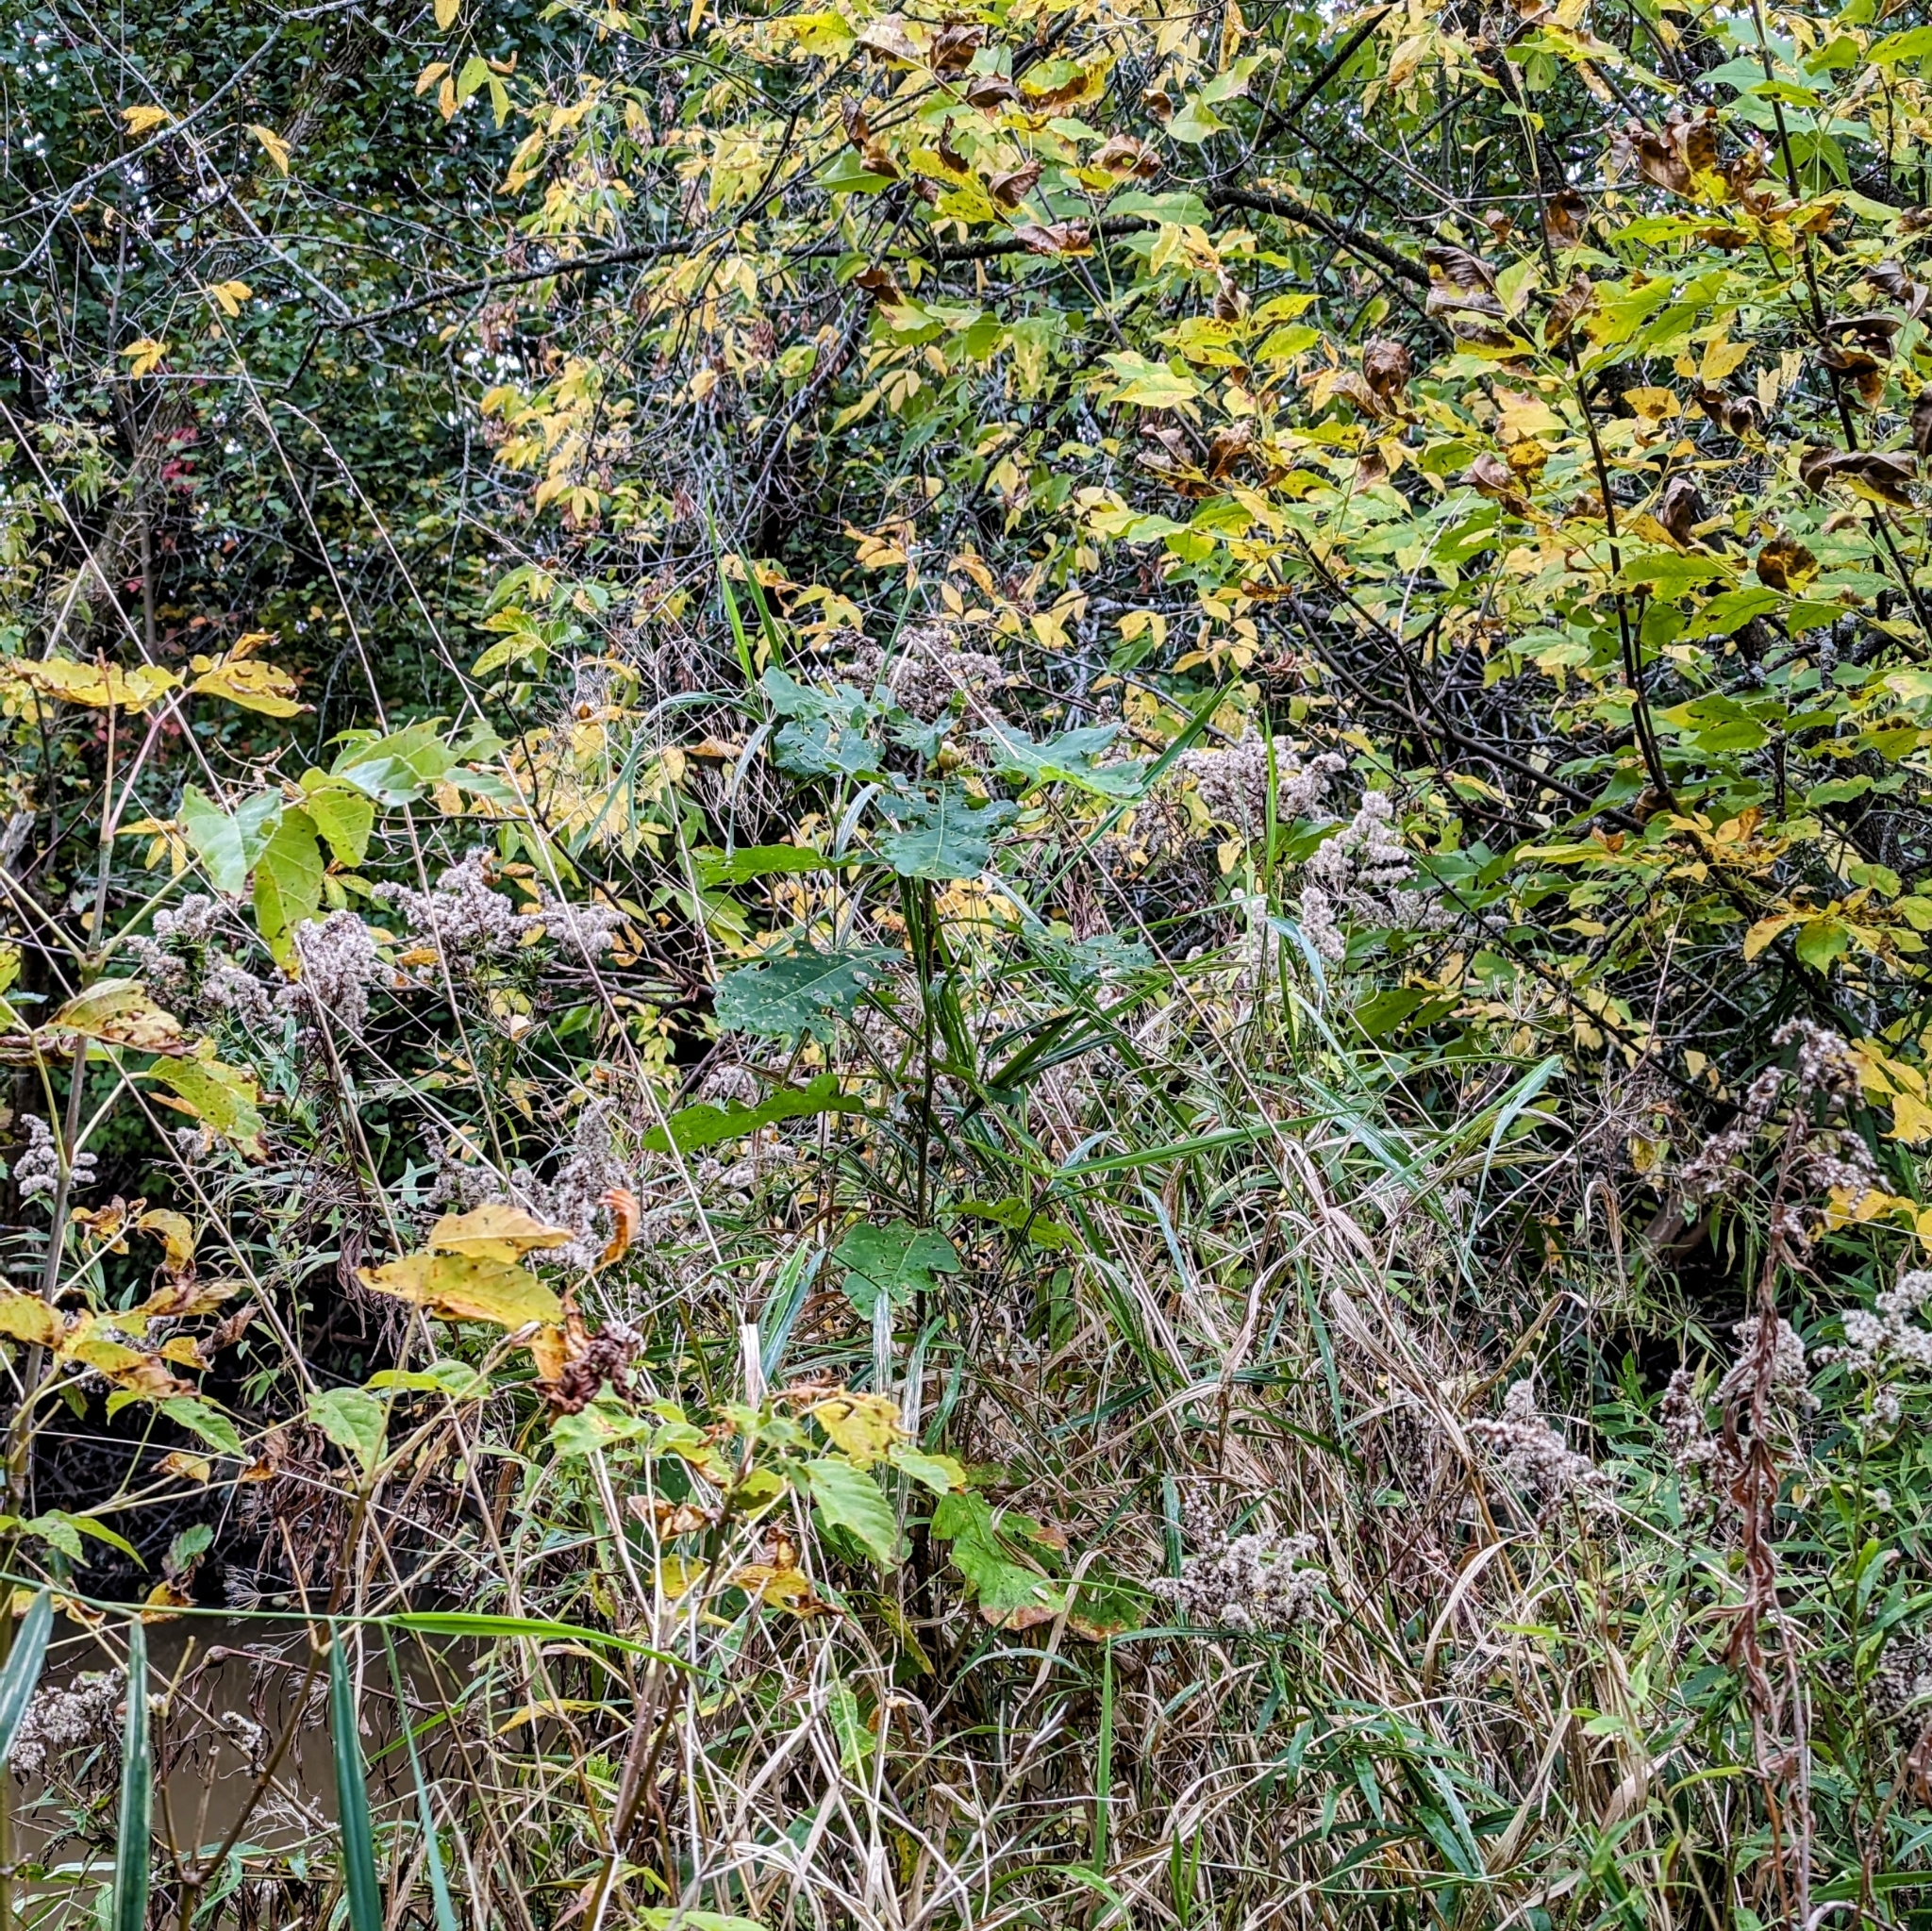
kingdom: Plantae
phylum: Tracheophyta
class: Magnoliopsida
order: Fagales
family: Fagaceae
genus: Quercus
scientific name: Quercus macrocarpa
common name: Bur oak
